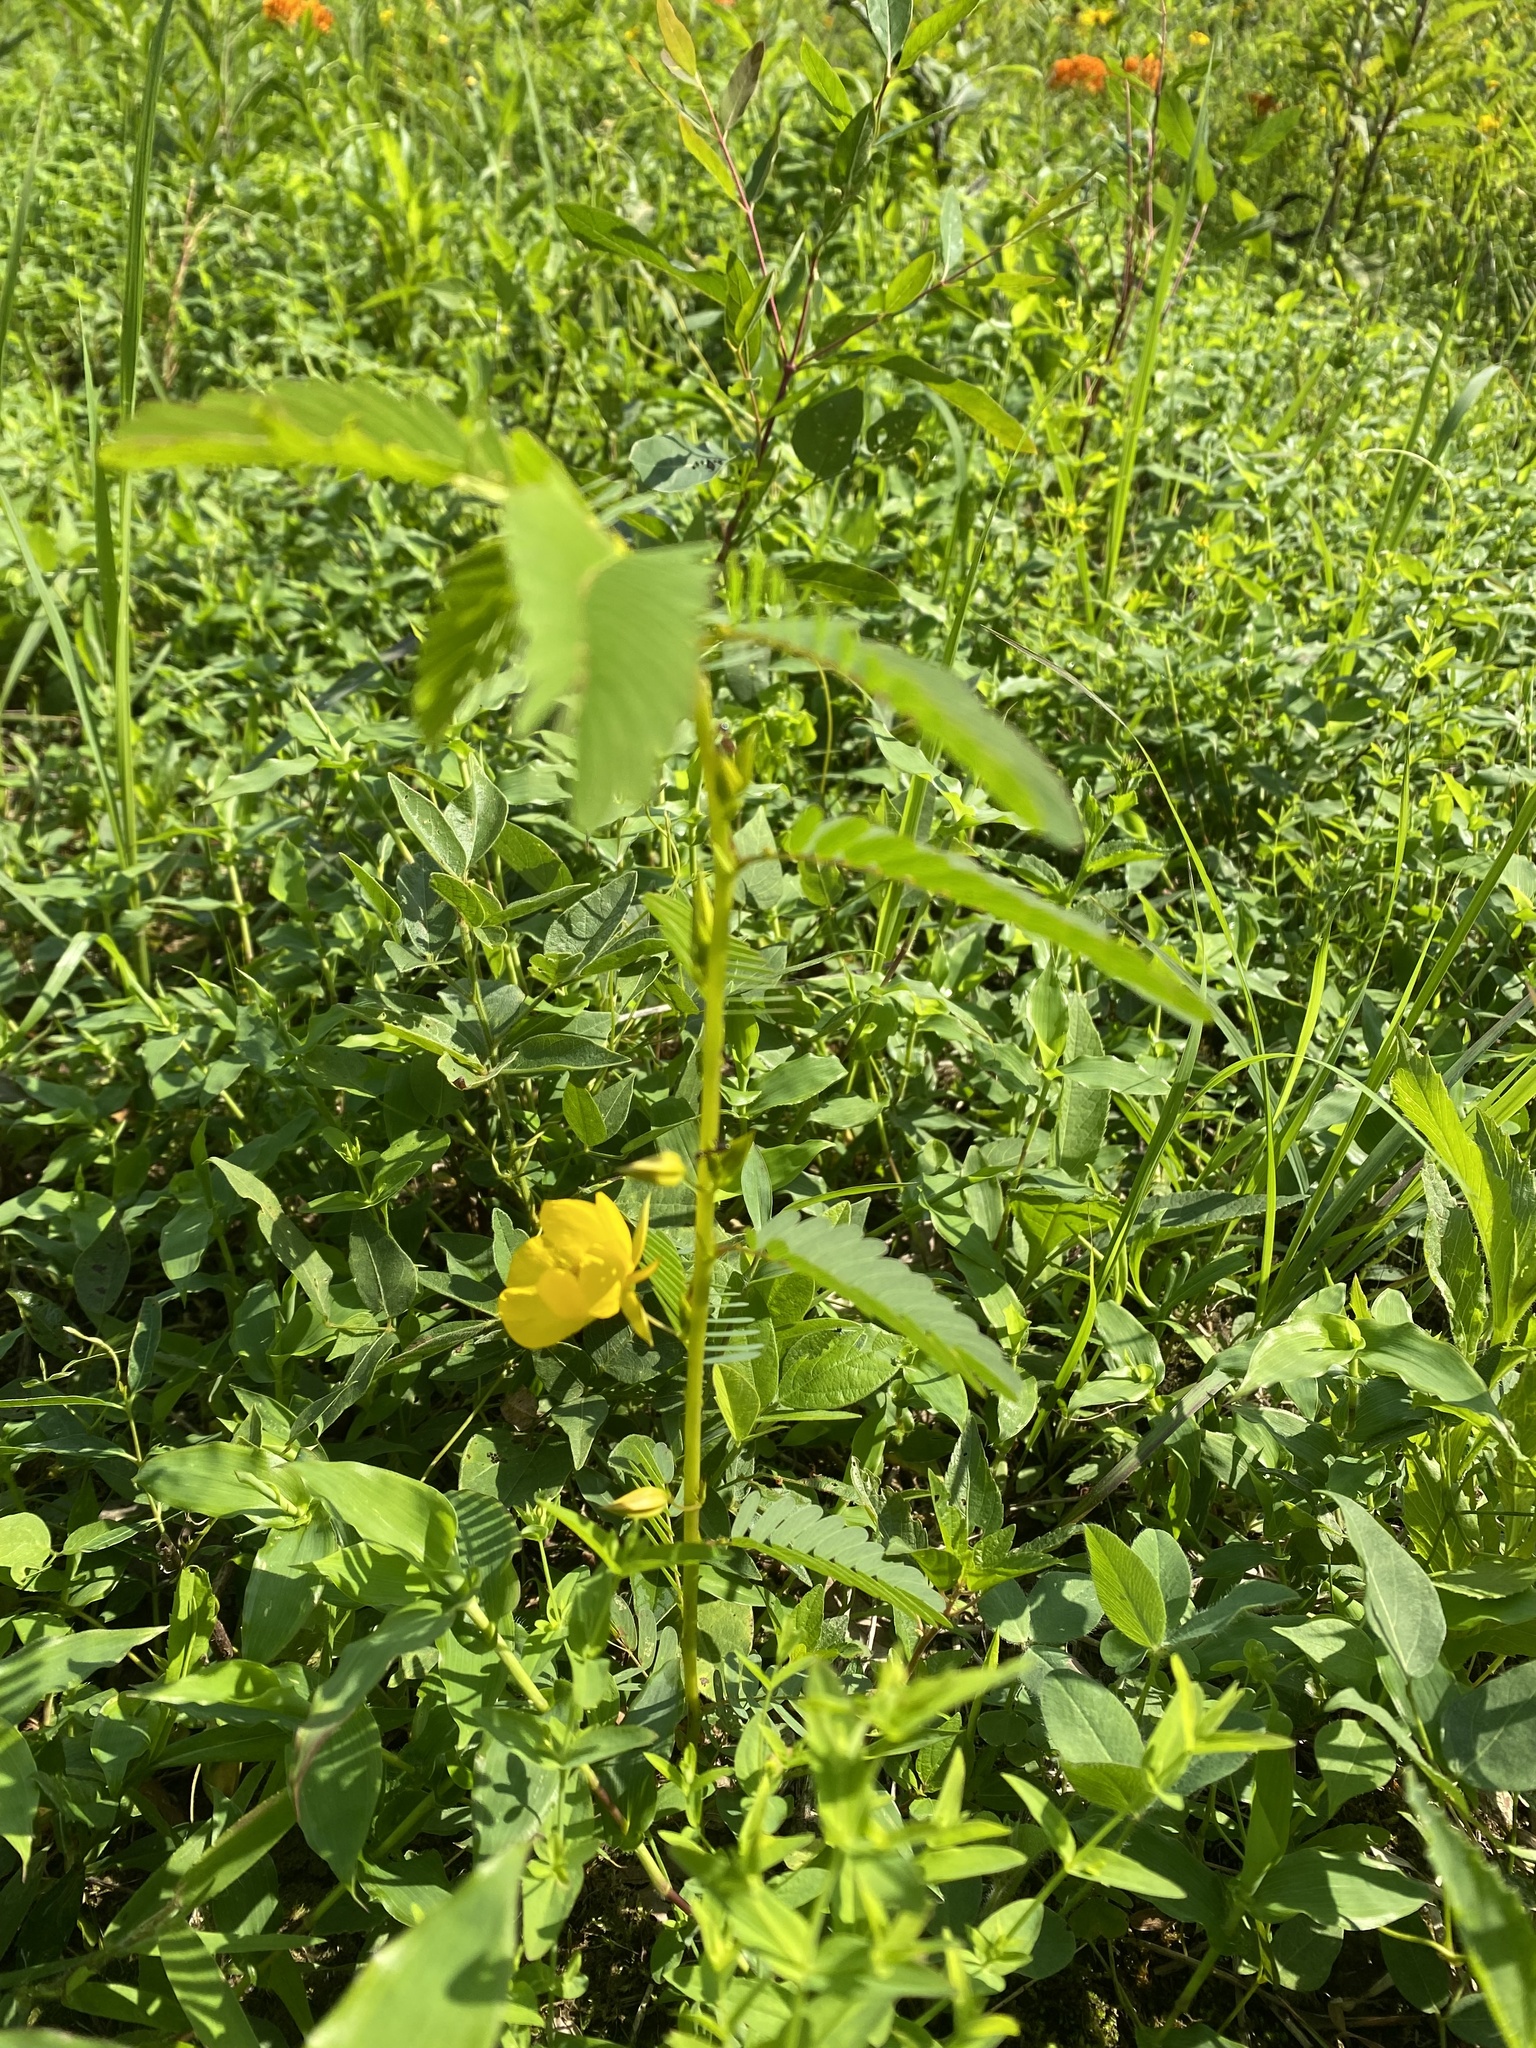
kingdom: Plantae
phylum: Tracheophyta
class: Magnoliopsida
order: Fabales
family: Fabaceae
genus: Chamaecrista
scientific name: Chamaecrista fasciculata
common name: Golden cassia
